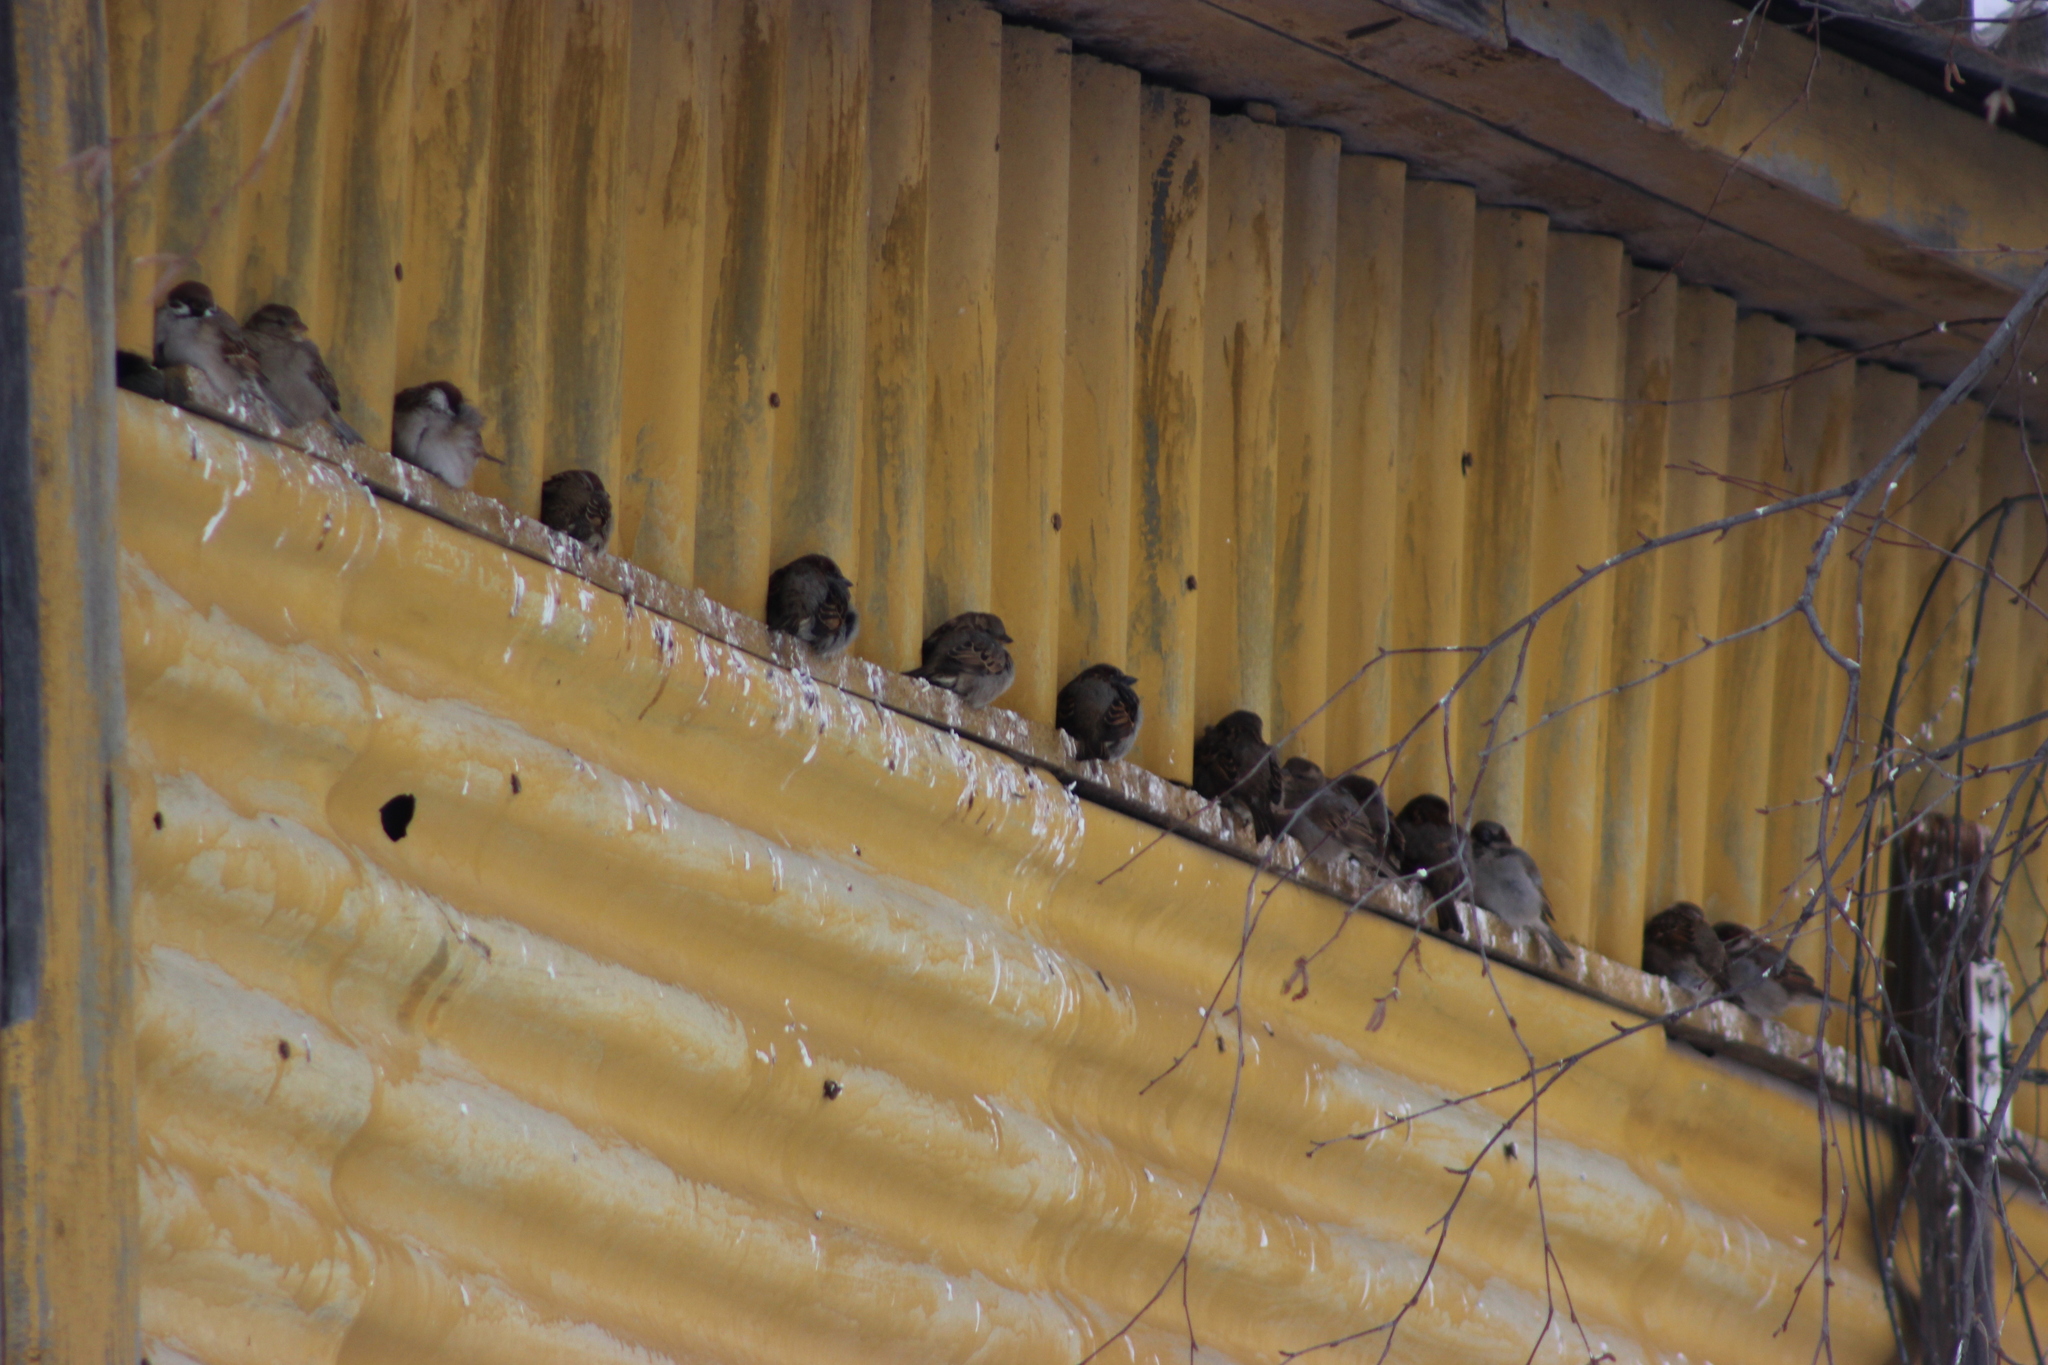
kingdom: Animalia
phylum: Chordata
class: Aves
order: Passeriformes
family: Passeridae
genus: Passer
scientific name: Passer domesticus
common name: House sparrow
